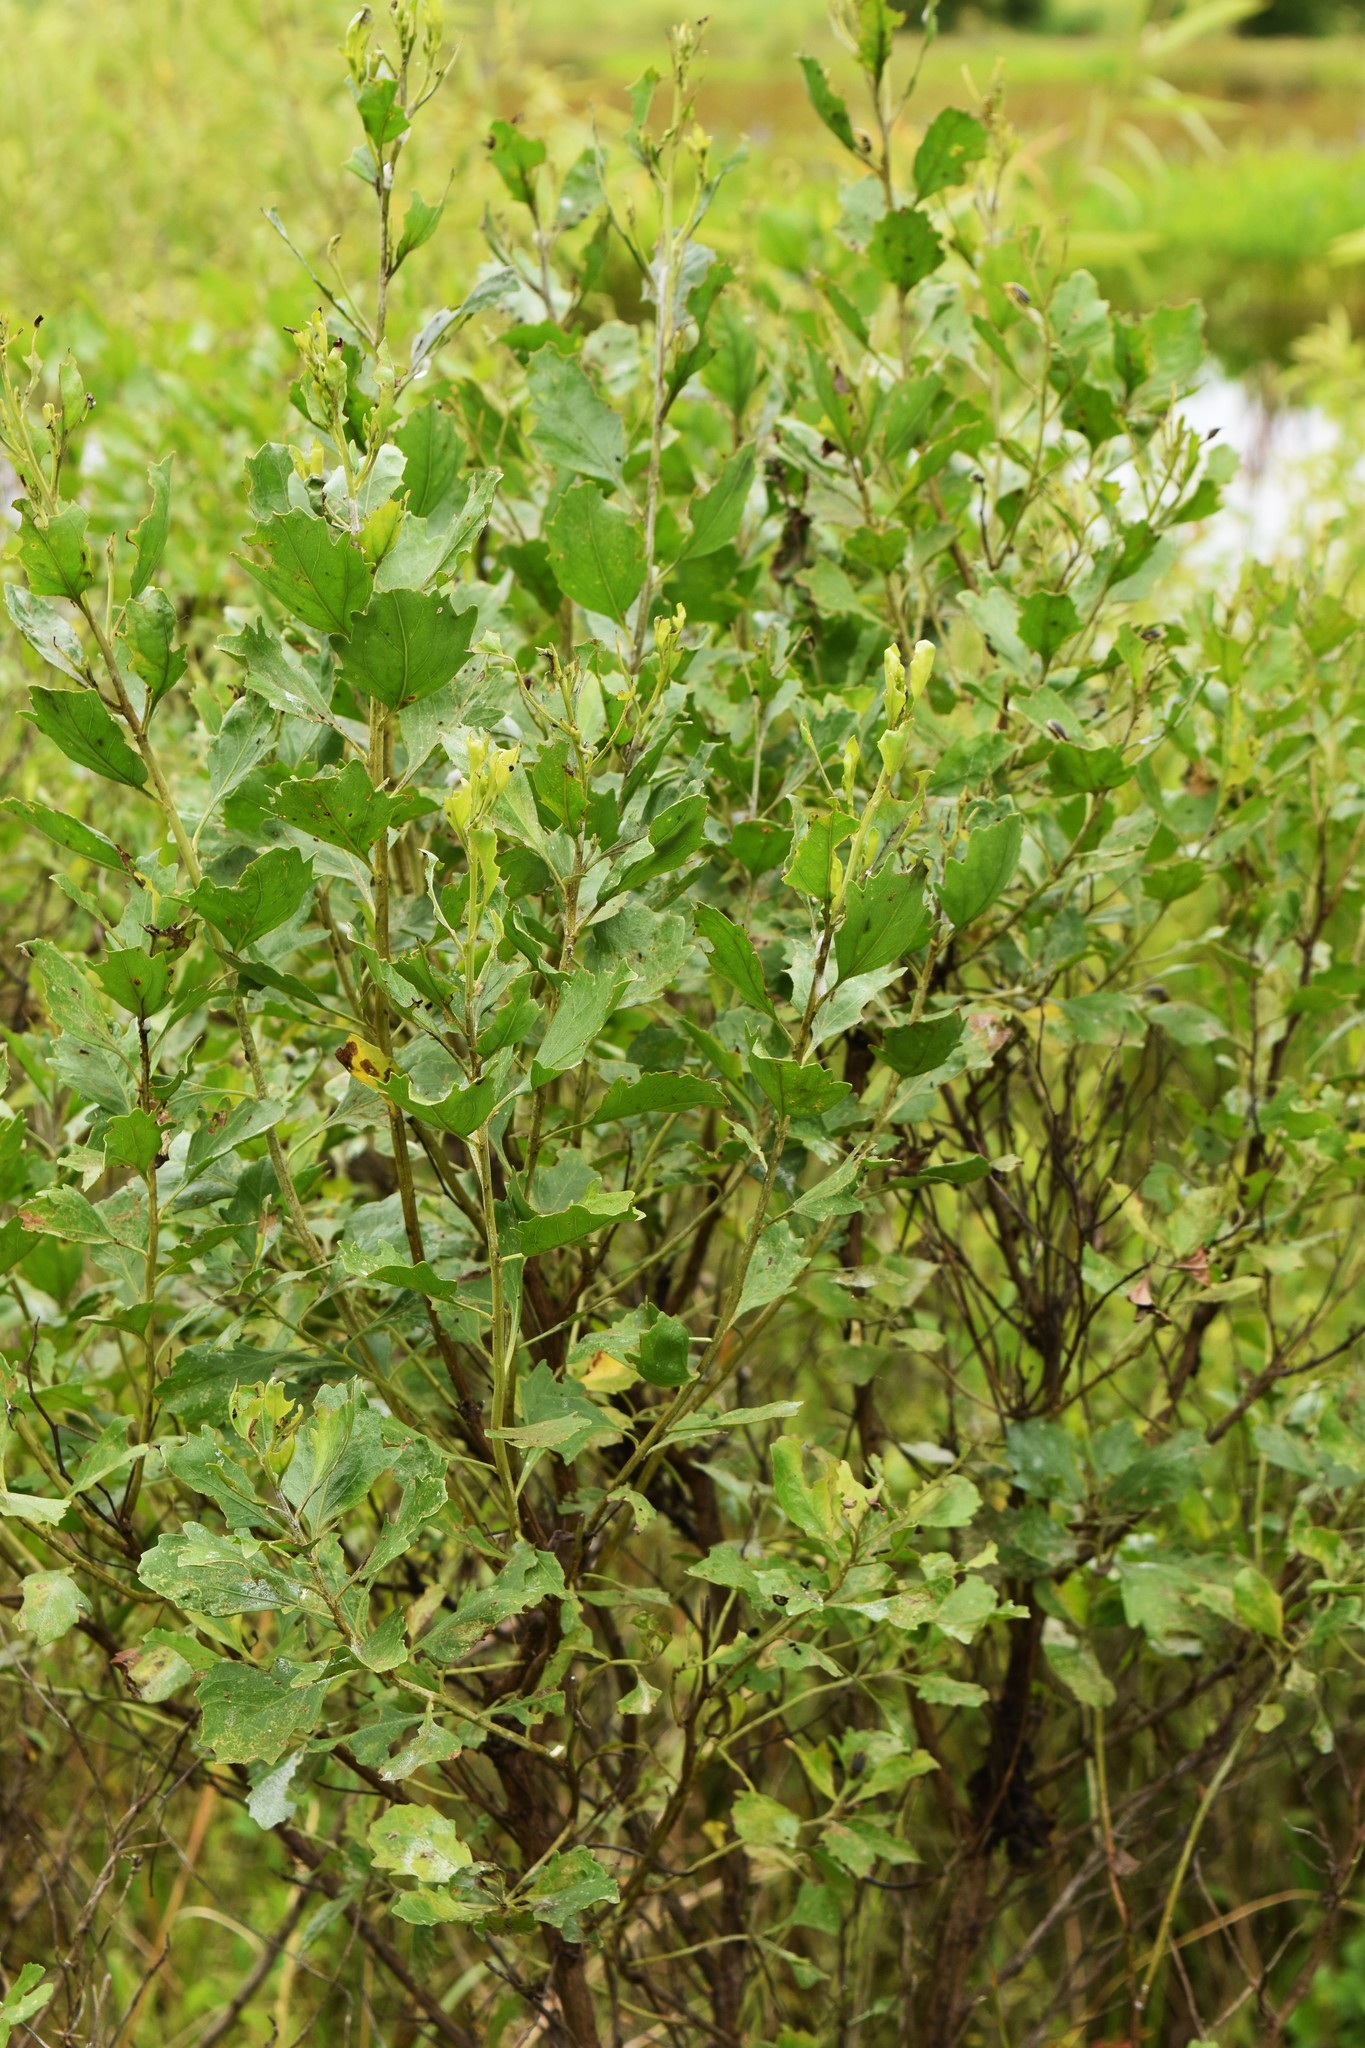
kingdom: Plantae
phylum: Tracheophyta
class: Magnoliopsida
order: Asterales
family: Asteraceae
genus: Baccharis
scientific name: Baccharis halimifolia
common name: Eastern baccharis
